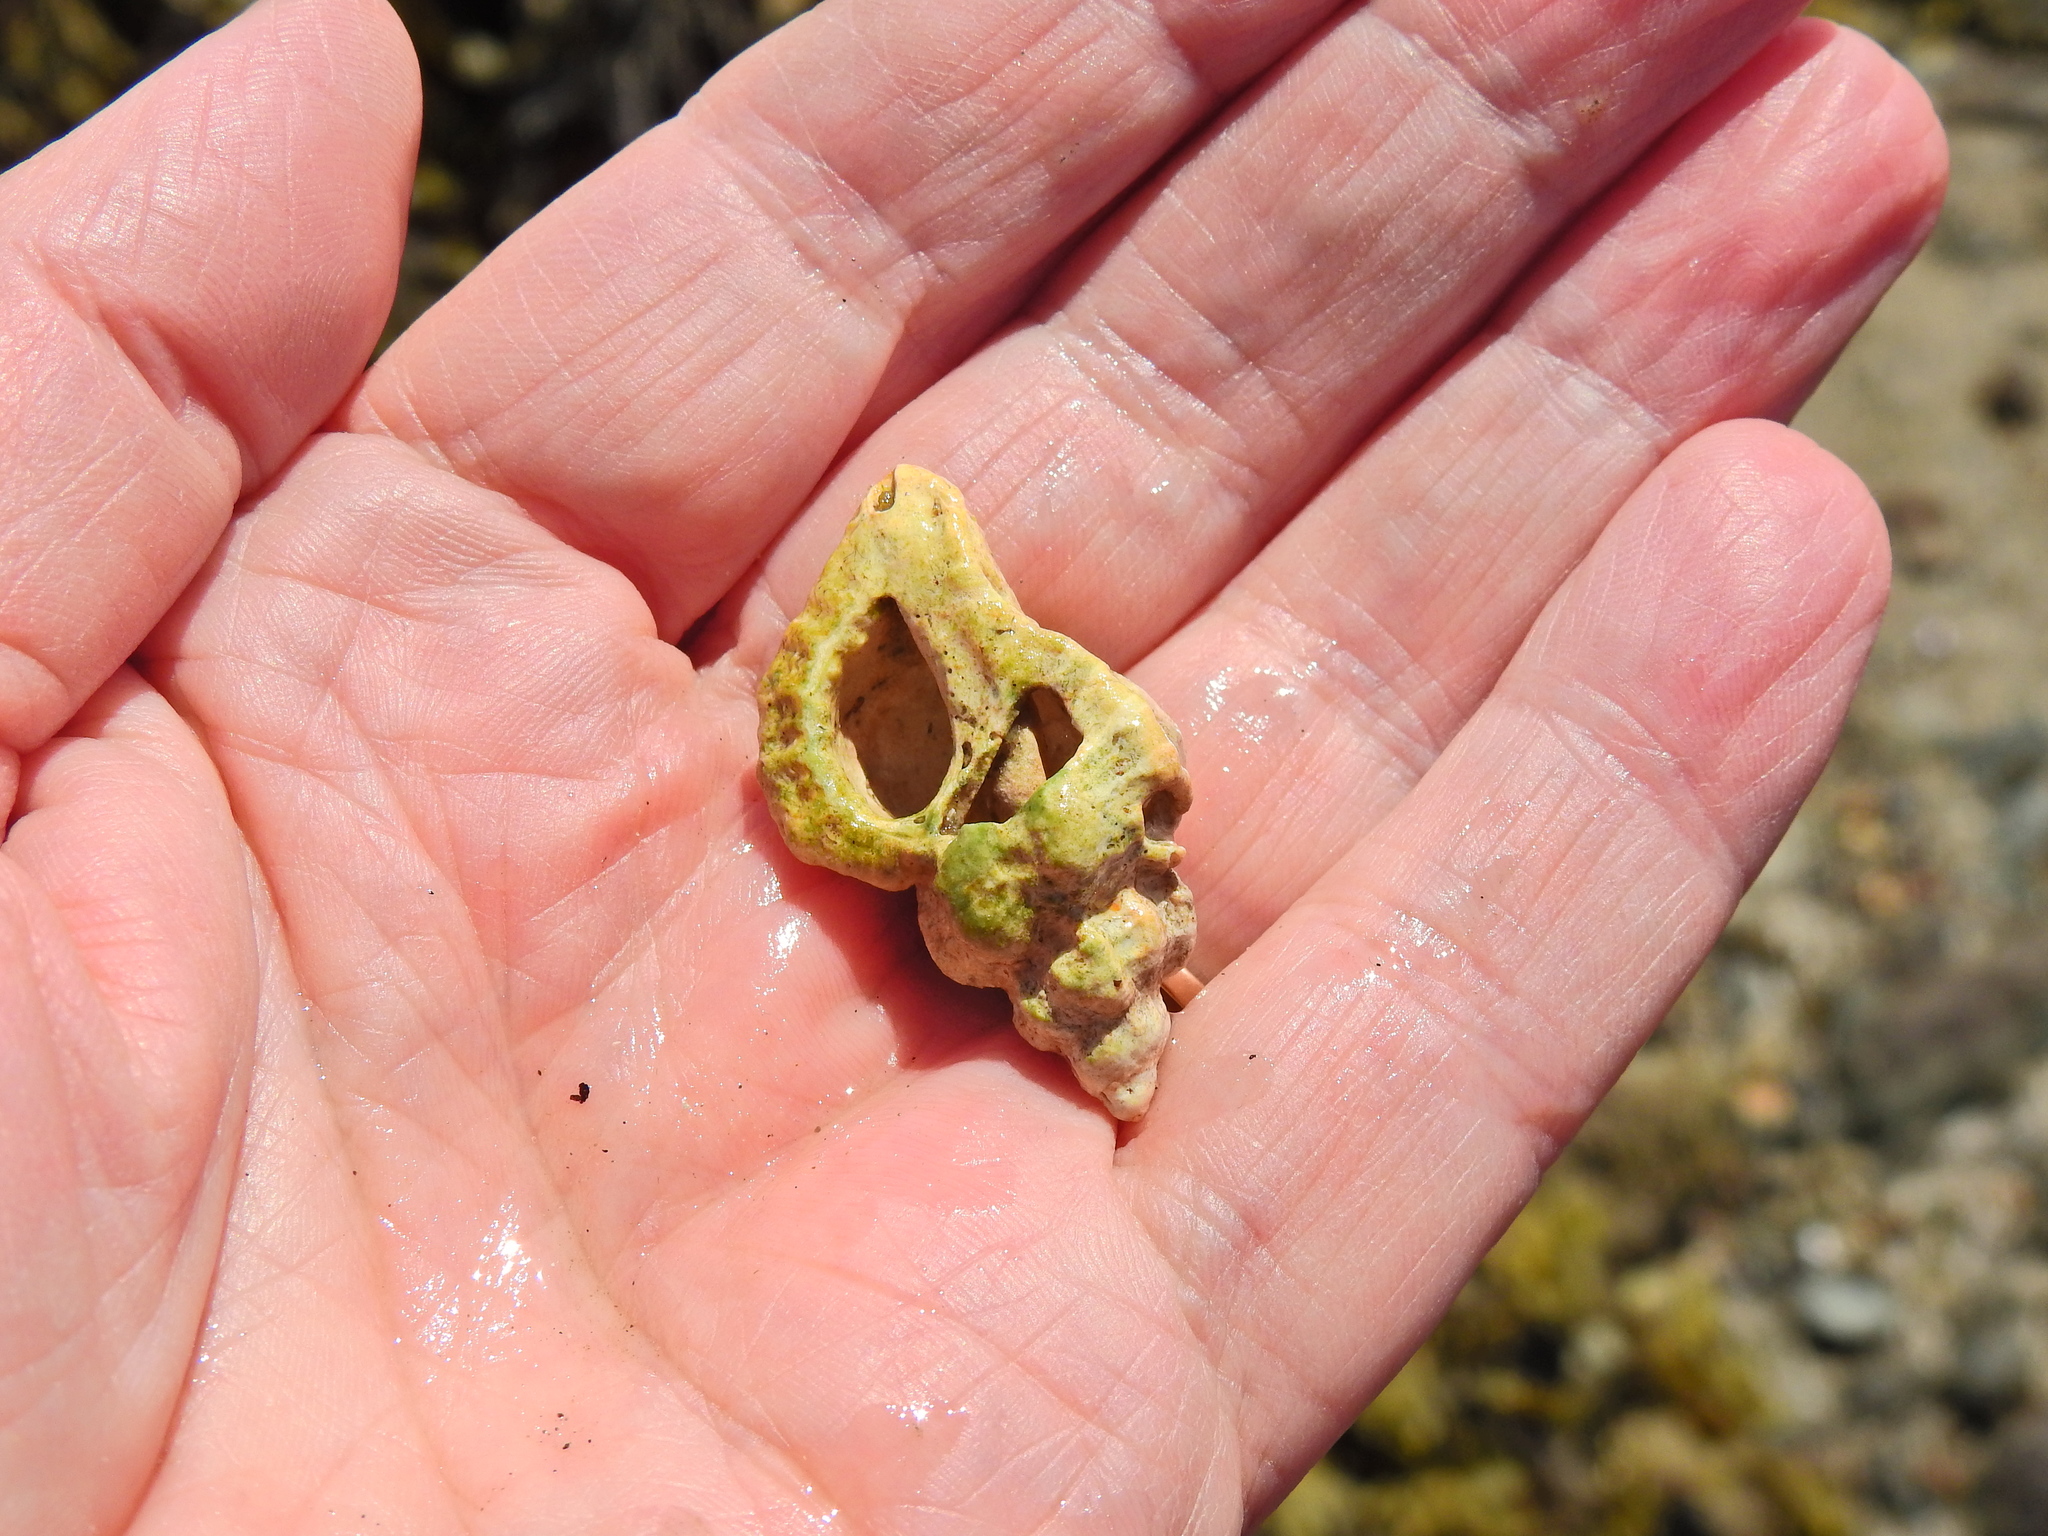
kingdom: Animalia
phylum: Mollusca
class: Gastropoda
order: Neogastropoda
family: Muricidae
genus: Ocenebra
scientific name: Ocenebra erinaceus
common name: European sting winkle
